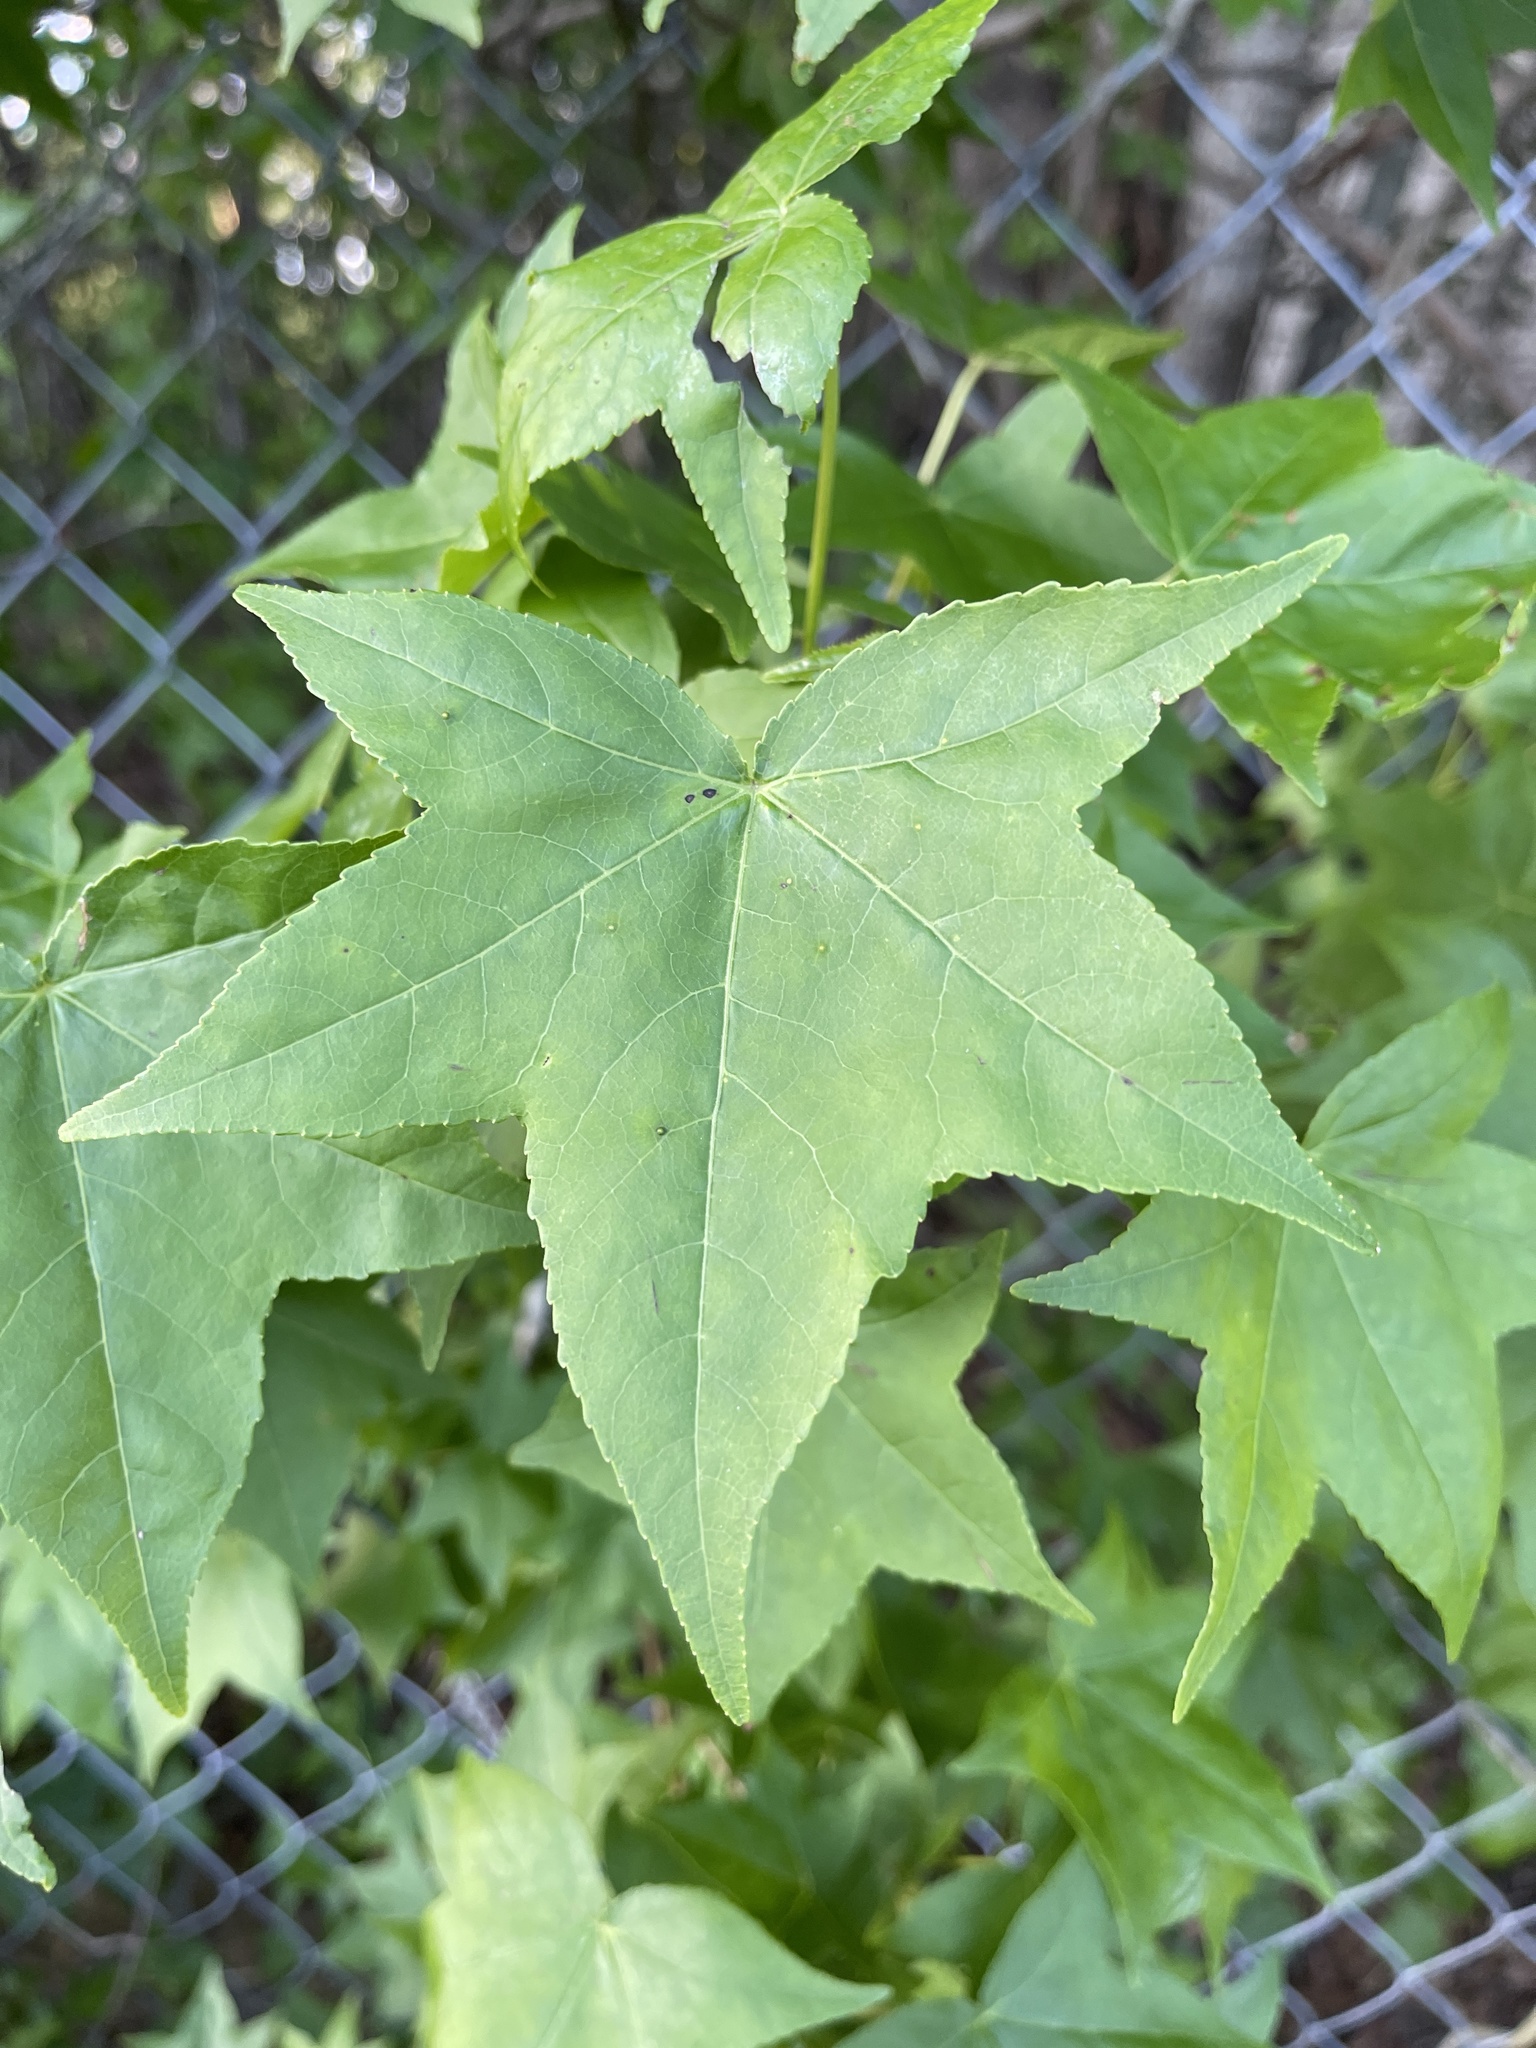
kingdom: Plantae
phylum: Tracheophyta
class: Magnoliopsida
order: Saxifragales
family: Altingiaceae
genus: Liquidambar
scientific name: Liquidambar styraciflua
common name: Sweet gum
